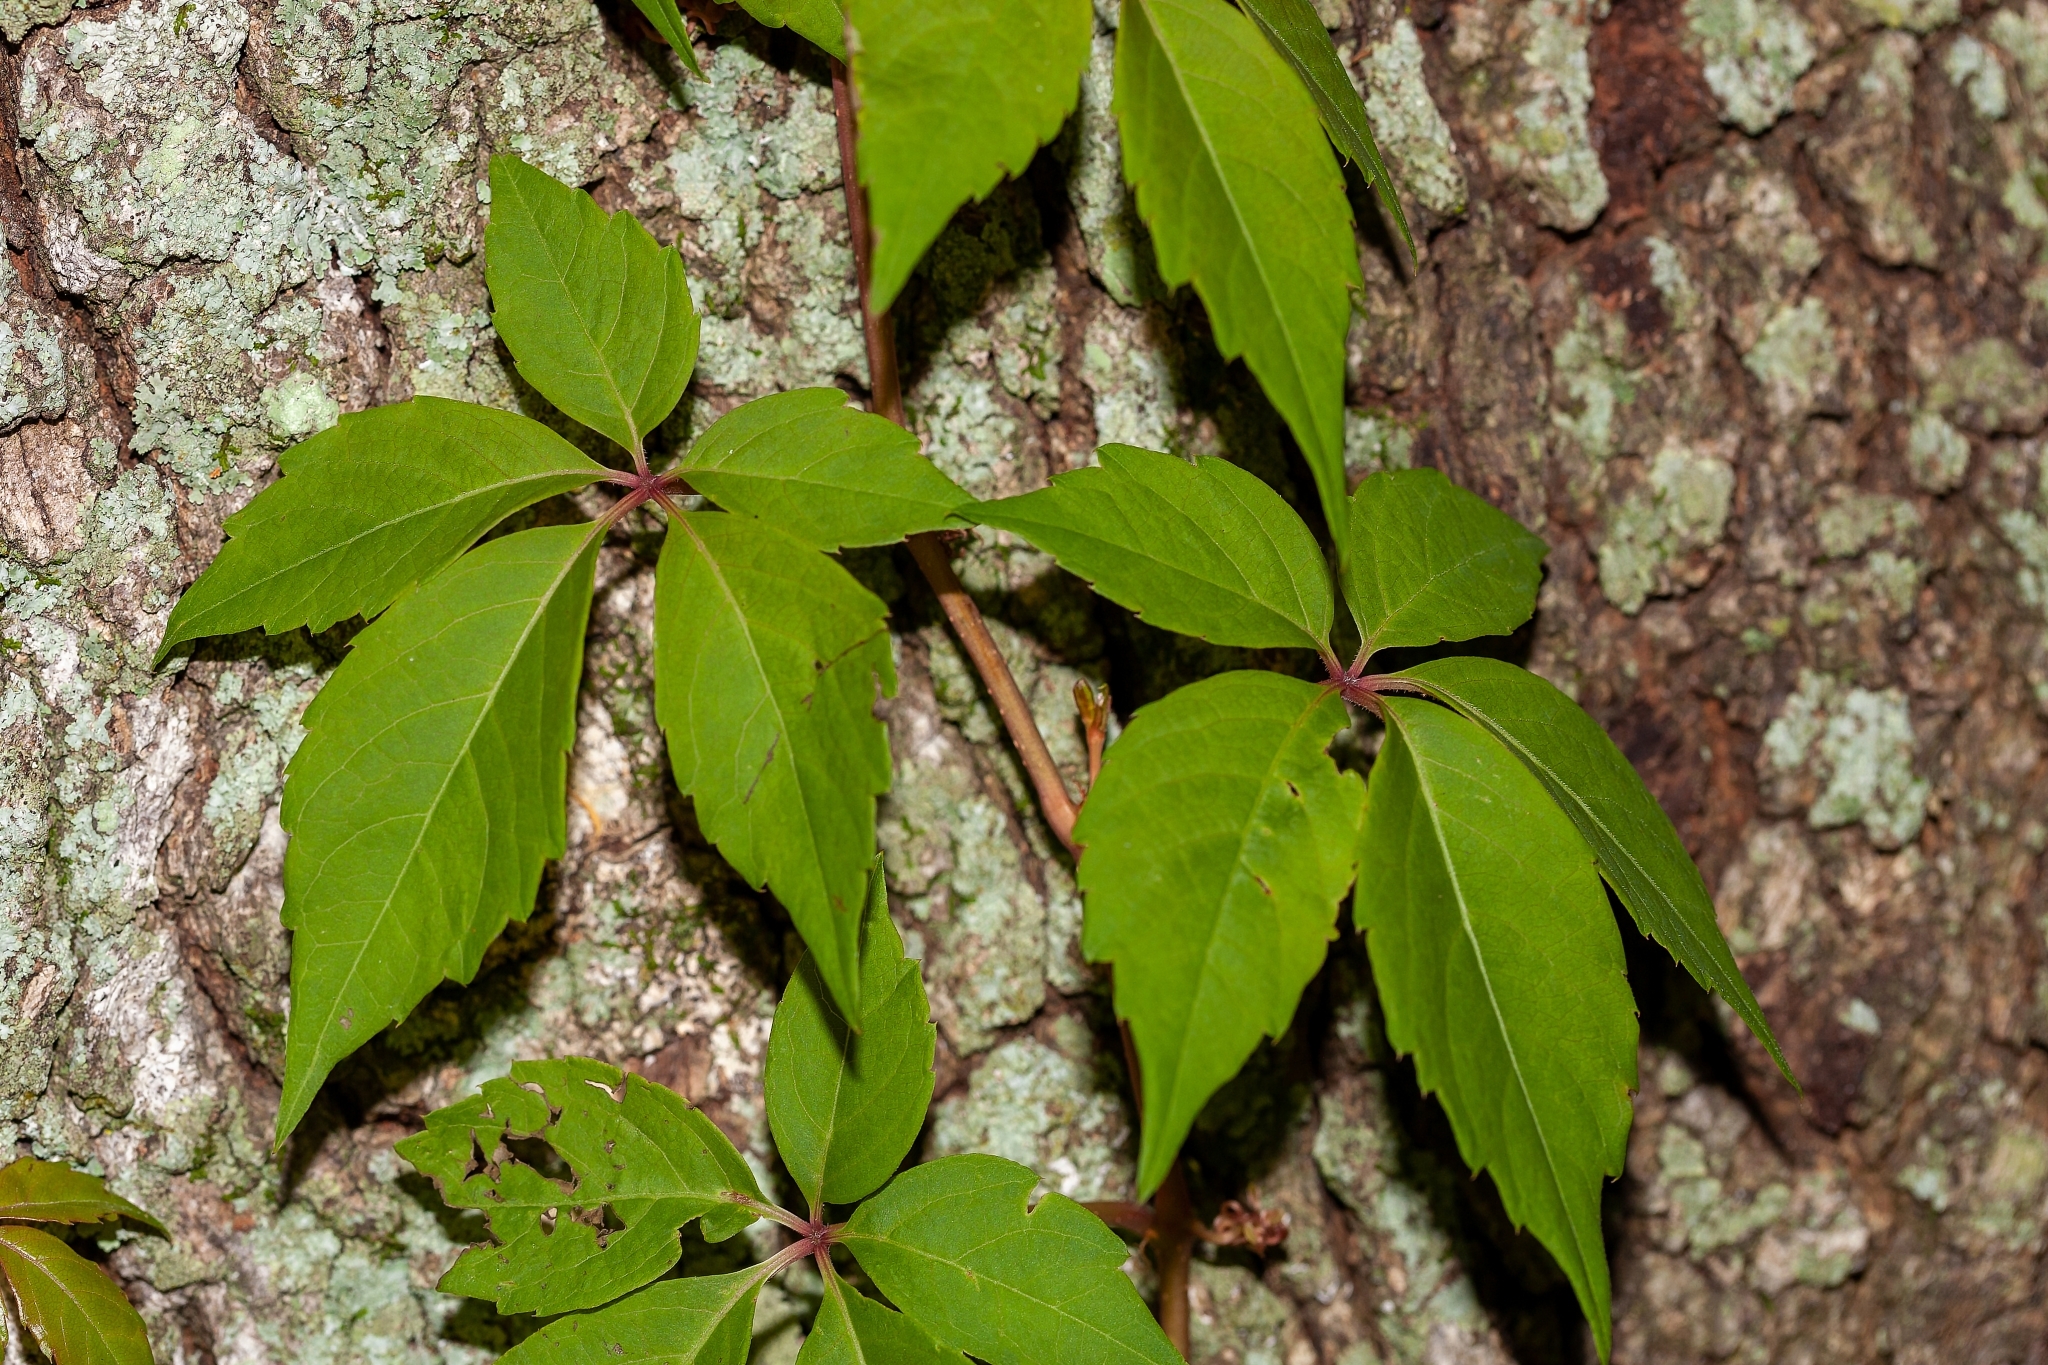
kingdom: Plantae
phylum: Tracheophyta
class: Magnoliopsida
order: Vitales
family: Vitaceae
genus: Parthenocissus
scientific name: Parthenocissus quinquefolia
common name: Virginia-creeper
